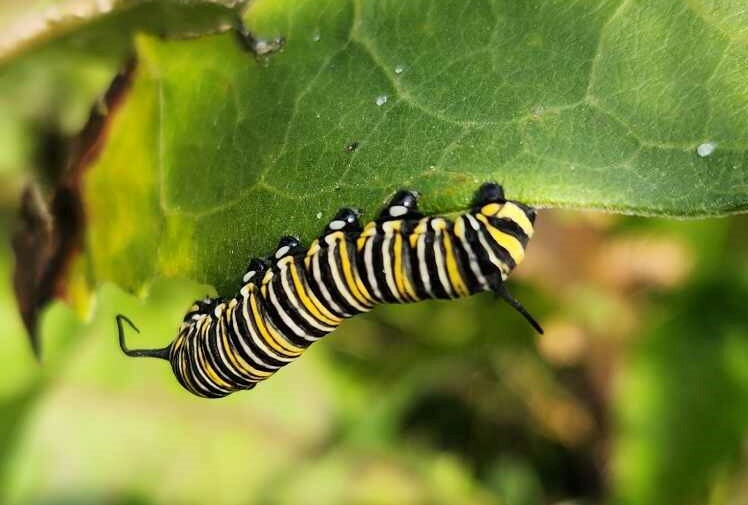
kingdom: Animalia
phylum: Arthropoda
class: Insecta
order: Lepidoptera
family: Nymphalidae
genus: Danaus
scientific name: Danaus plexippus
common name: Monarch
